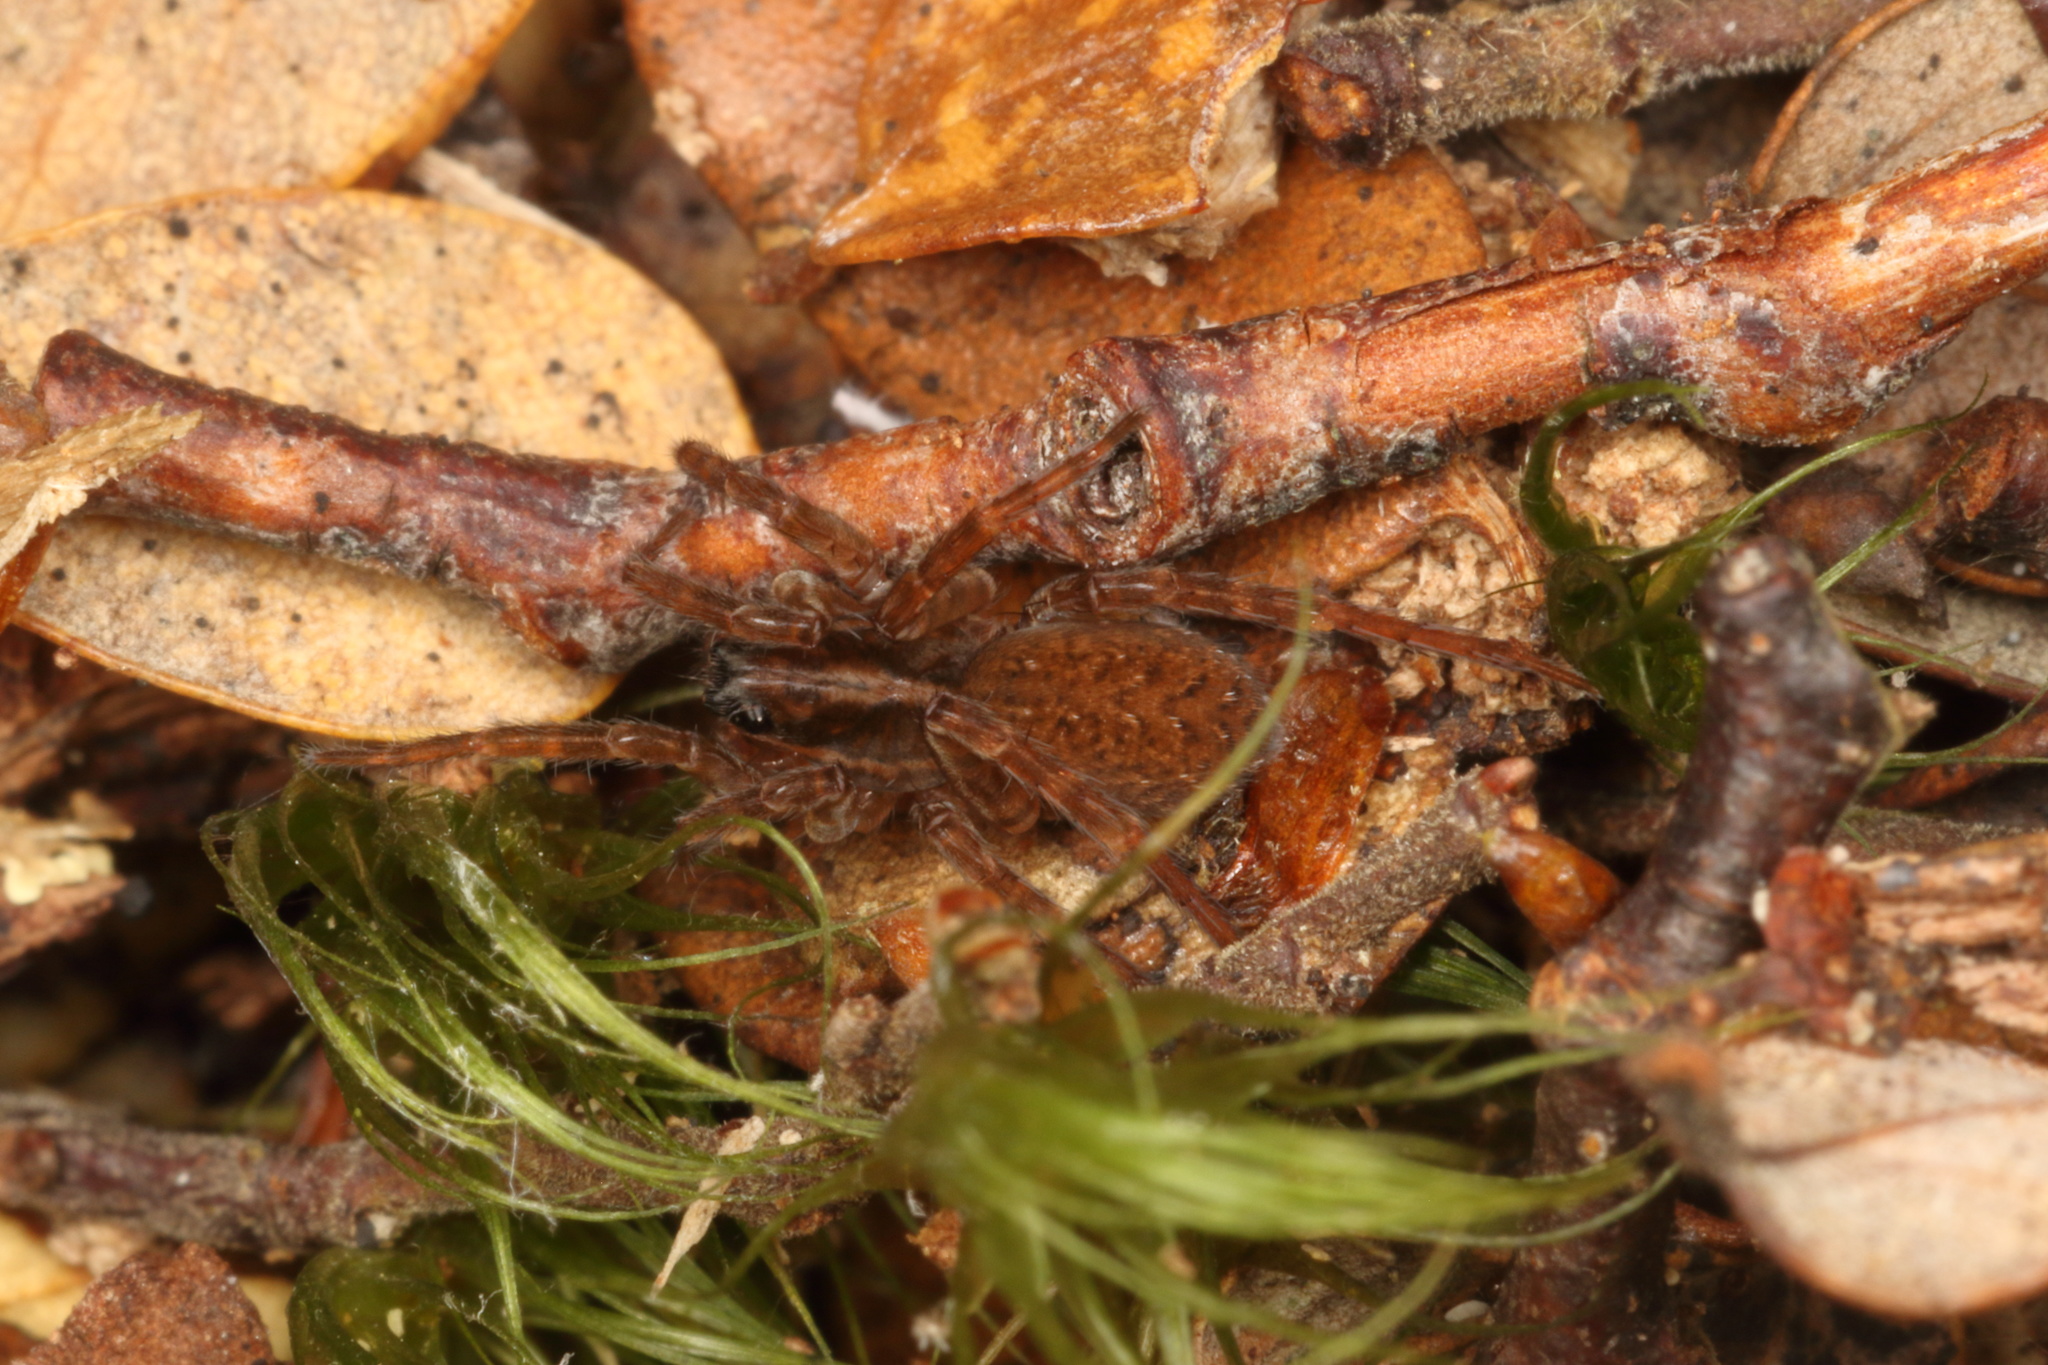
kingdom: Animalia
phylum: Arthropoda
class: Arachnida
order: Araneae
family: Lycosidae
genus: Allotrochosina
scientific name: Allotrochosina schauinslandi
